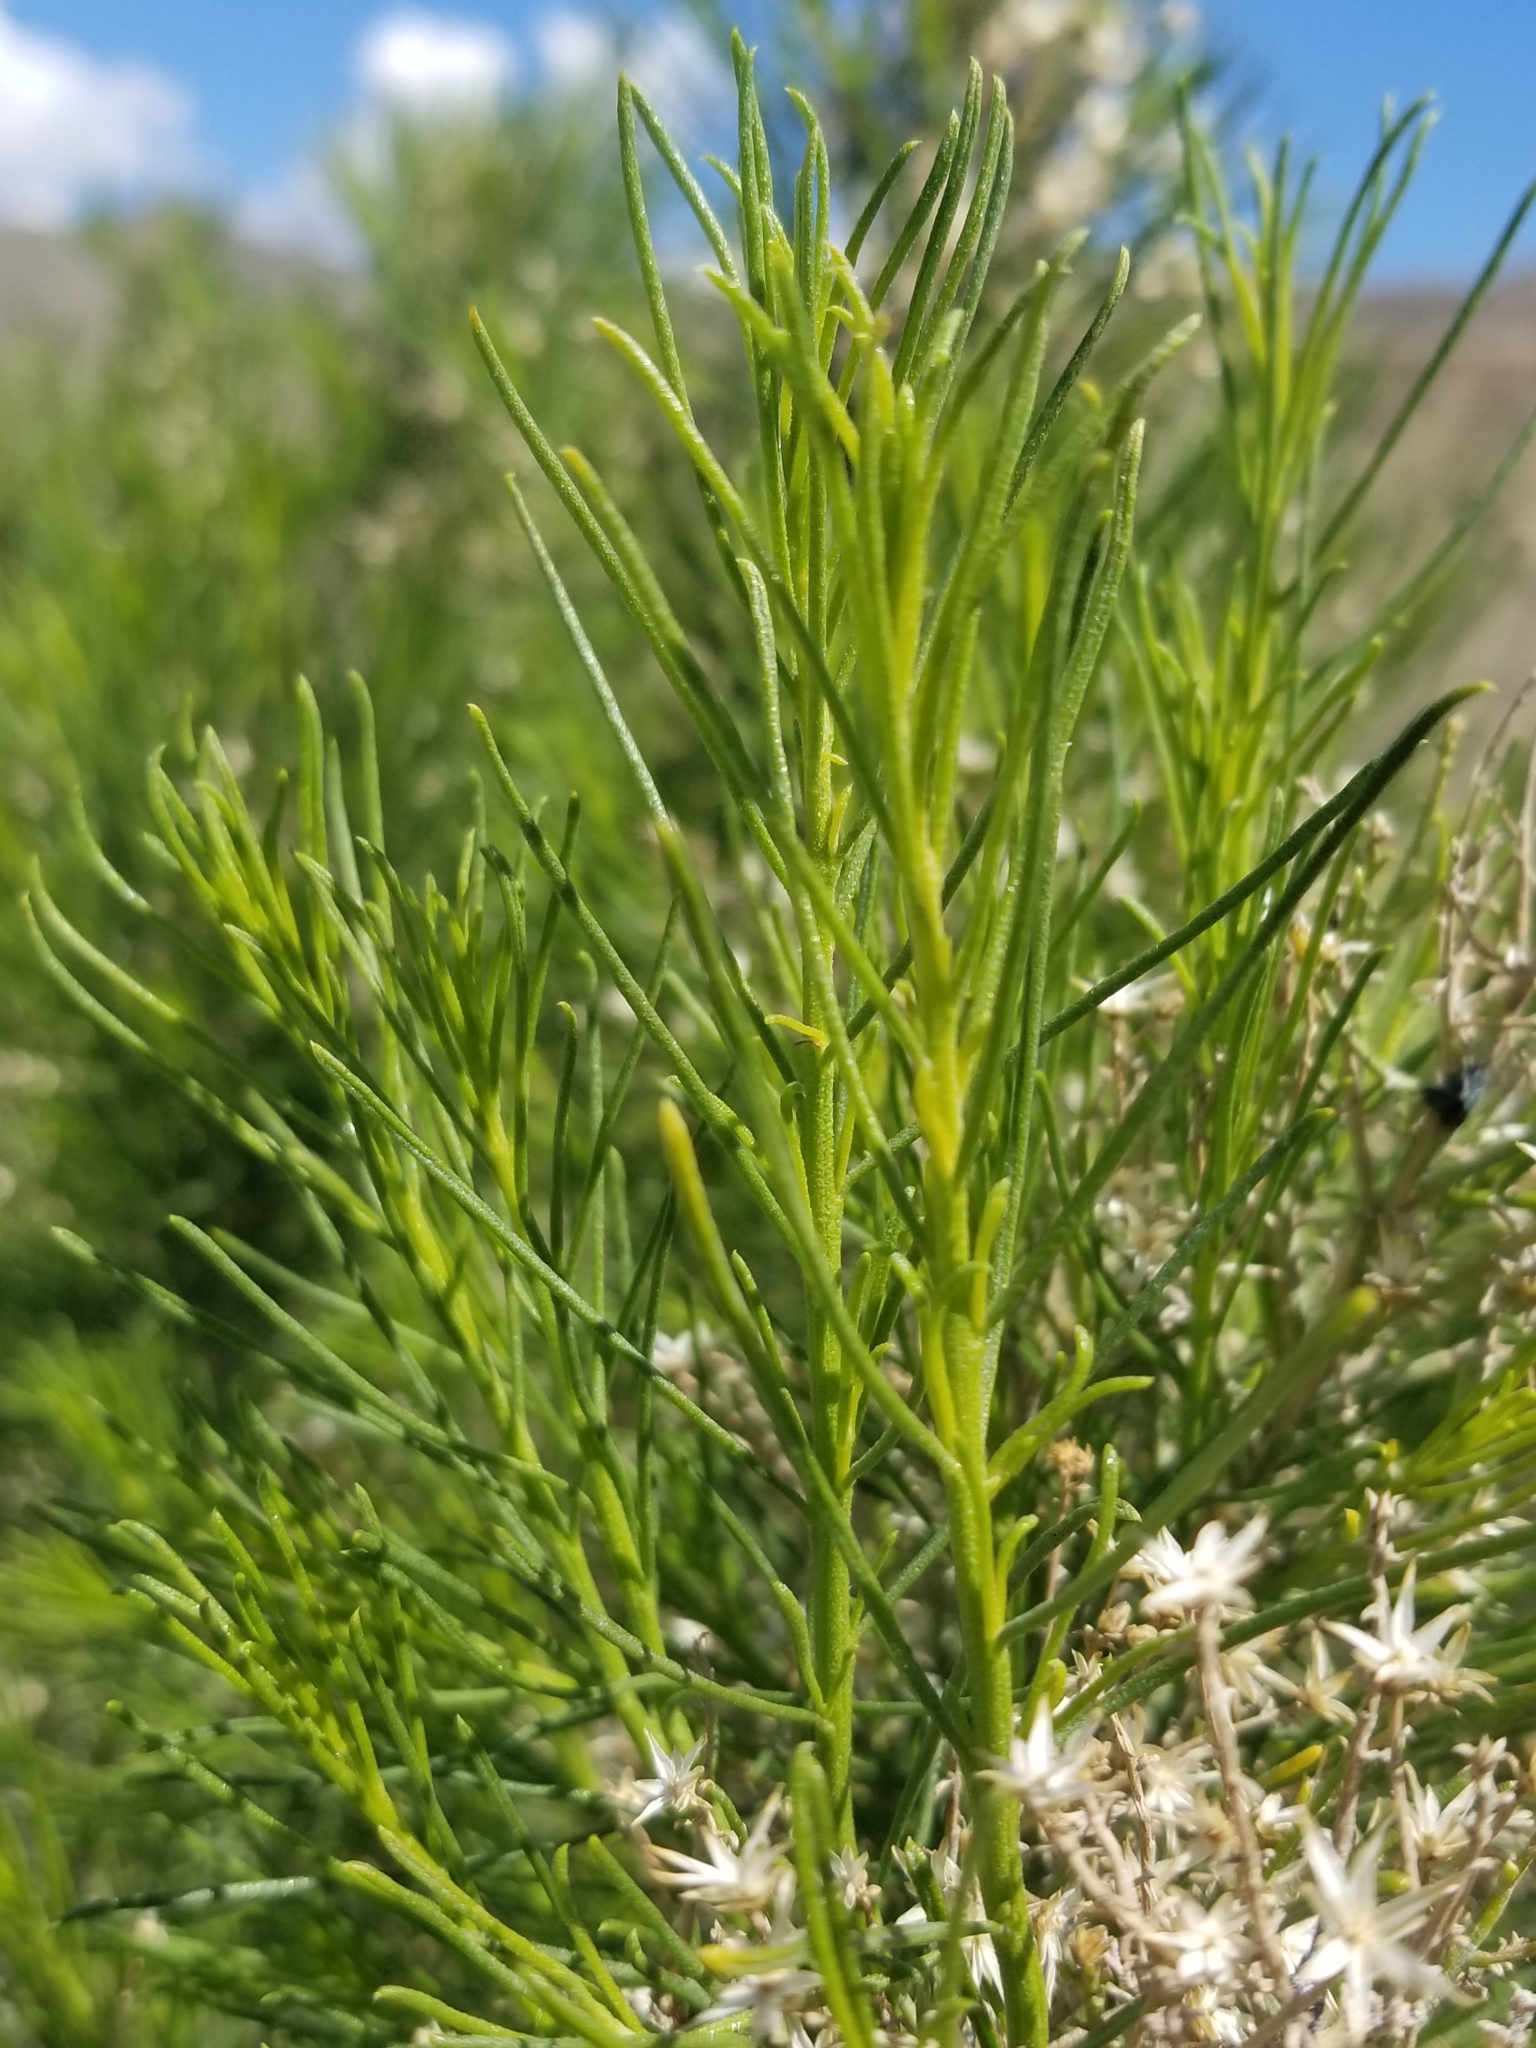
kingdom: Plantae
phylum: Tracheophyta
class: Magnoliopsida
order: Asterales
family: Asteraceae
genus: Ericameria
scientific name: Ericameria paniculata
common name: Punctate rabbitbrush
